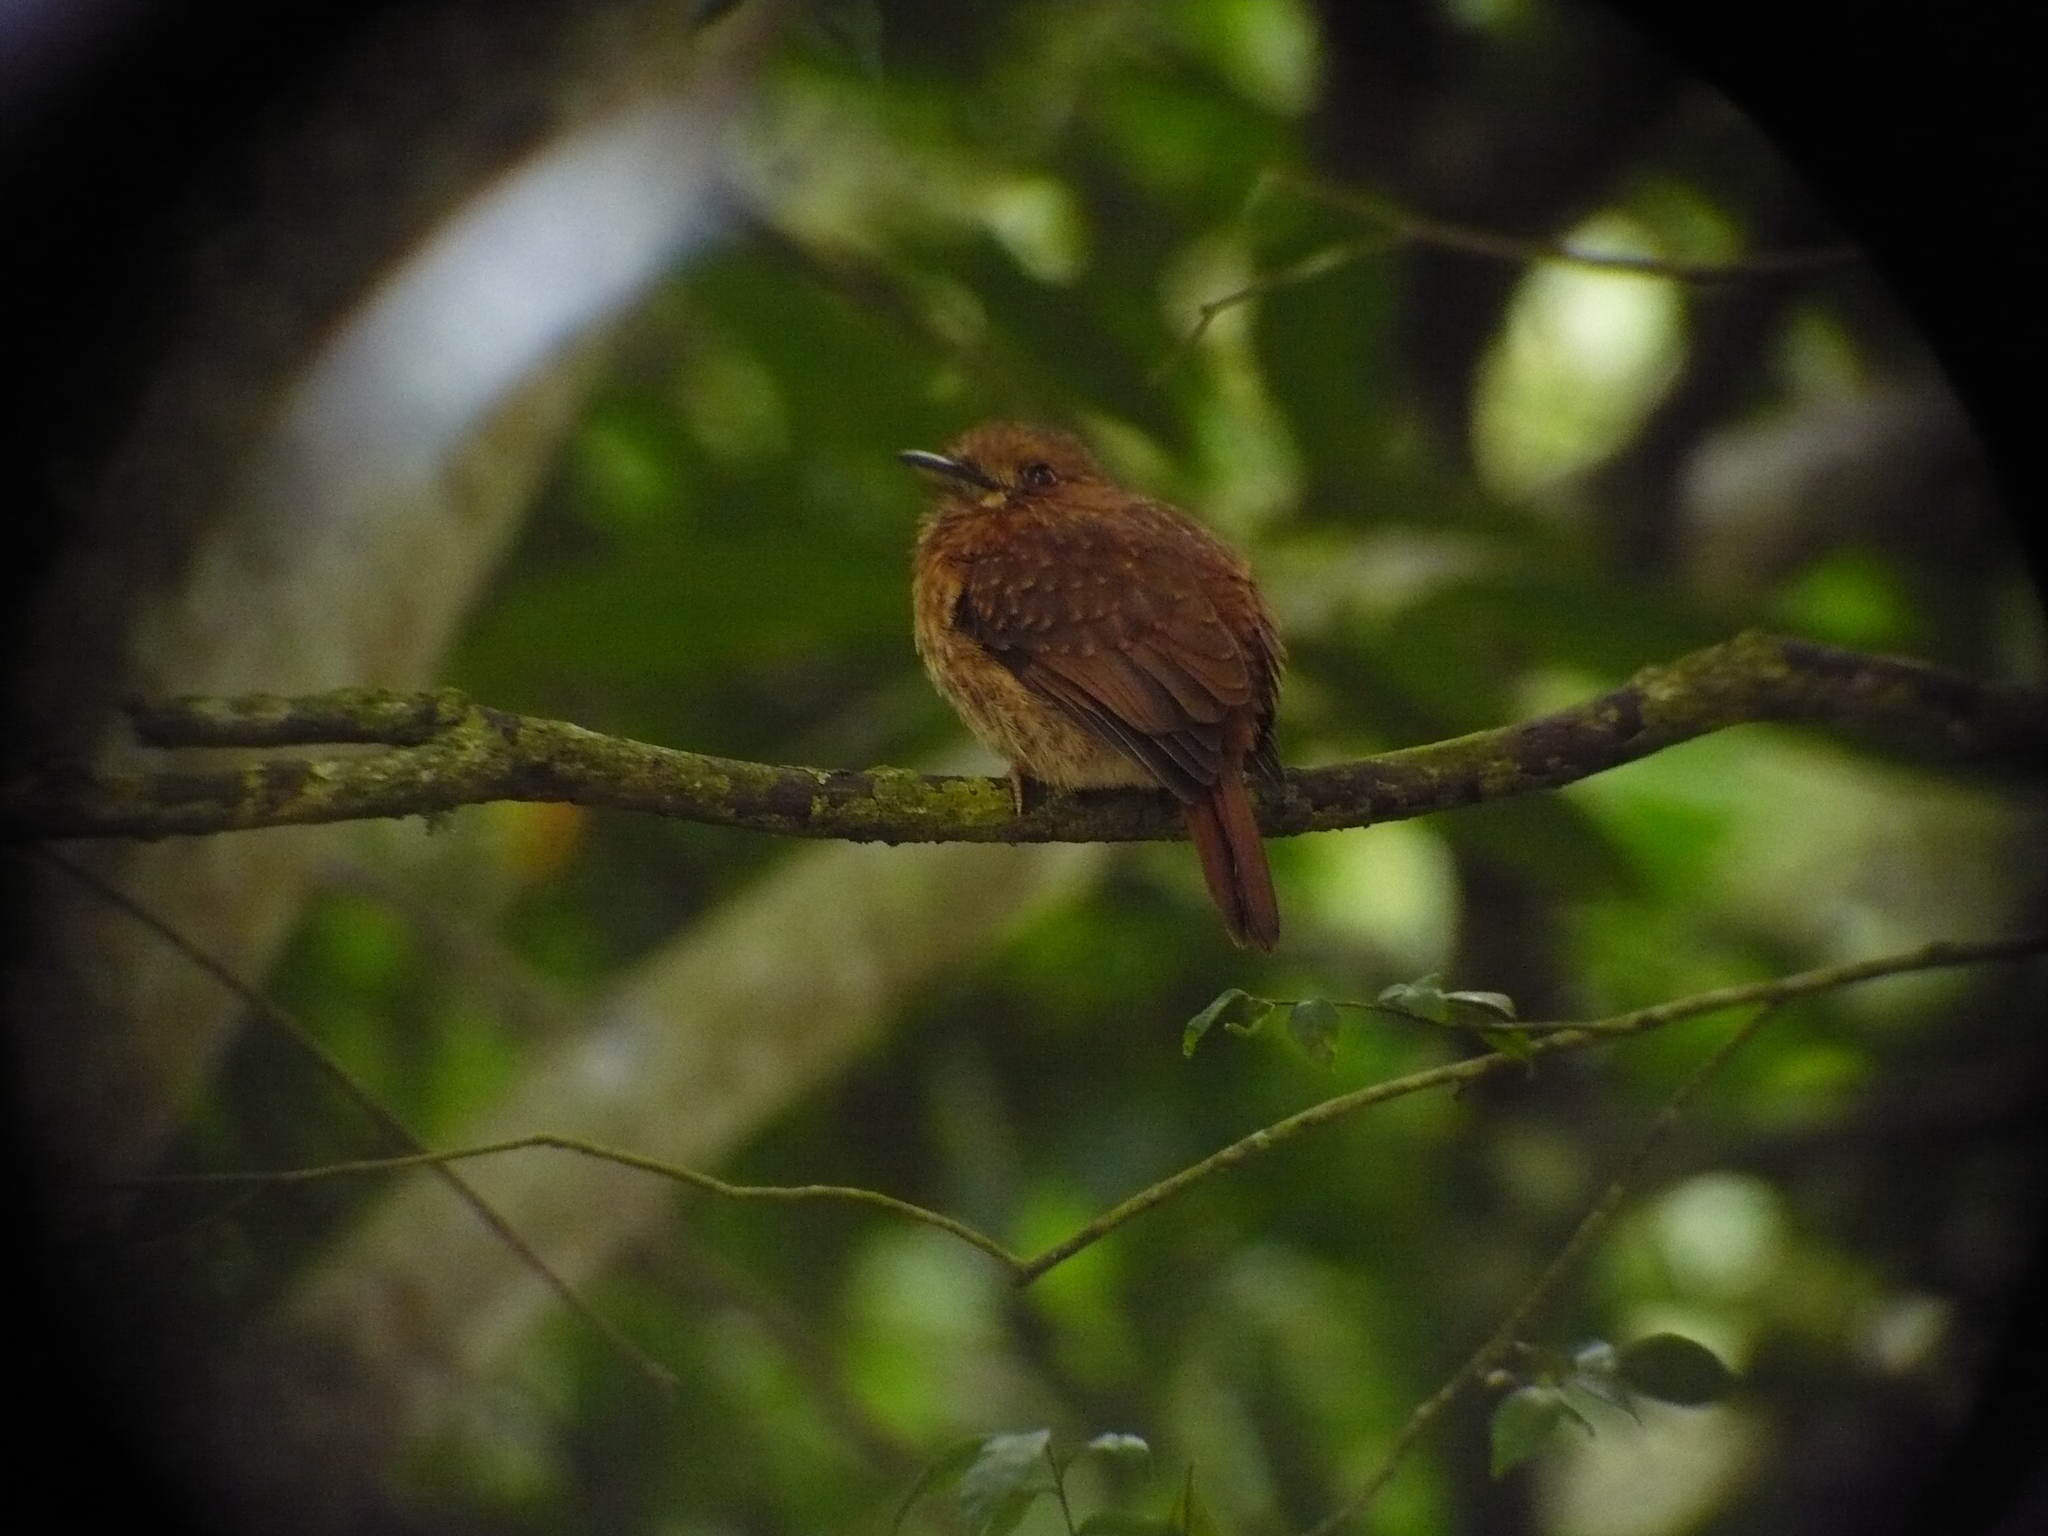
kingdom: Animalia
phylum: Chordata
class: Aves
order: Piciformes
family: Bucconidae
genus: Malacoptila
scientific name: Malacoptila panamensis
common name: White-whiskered puffbird
